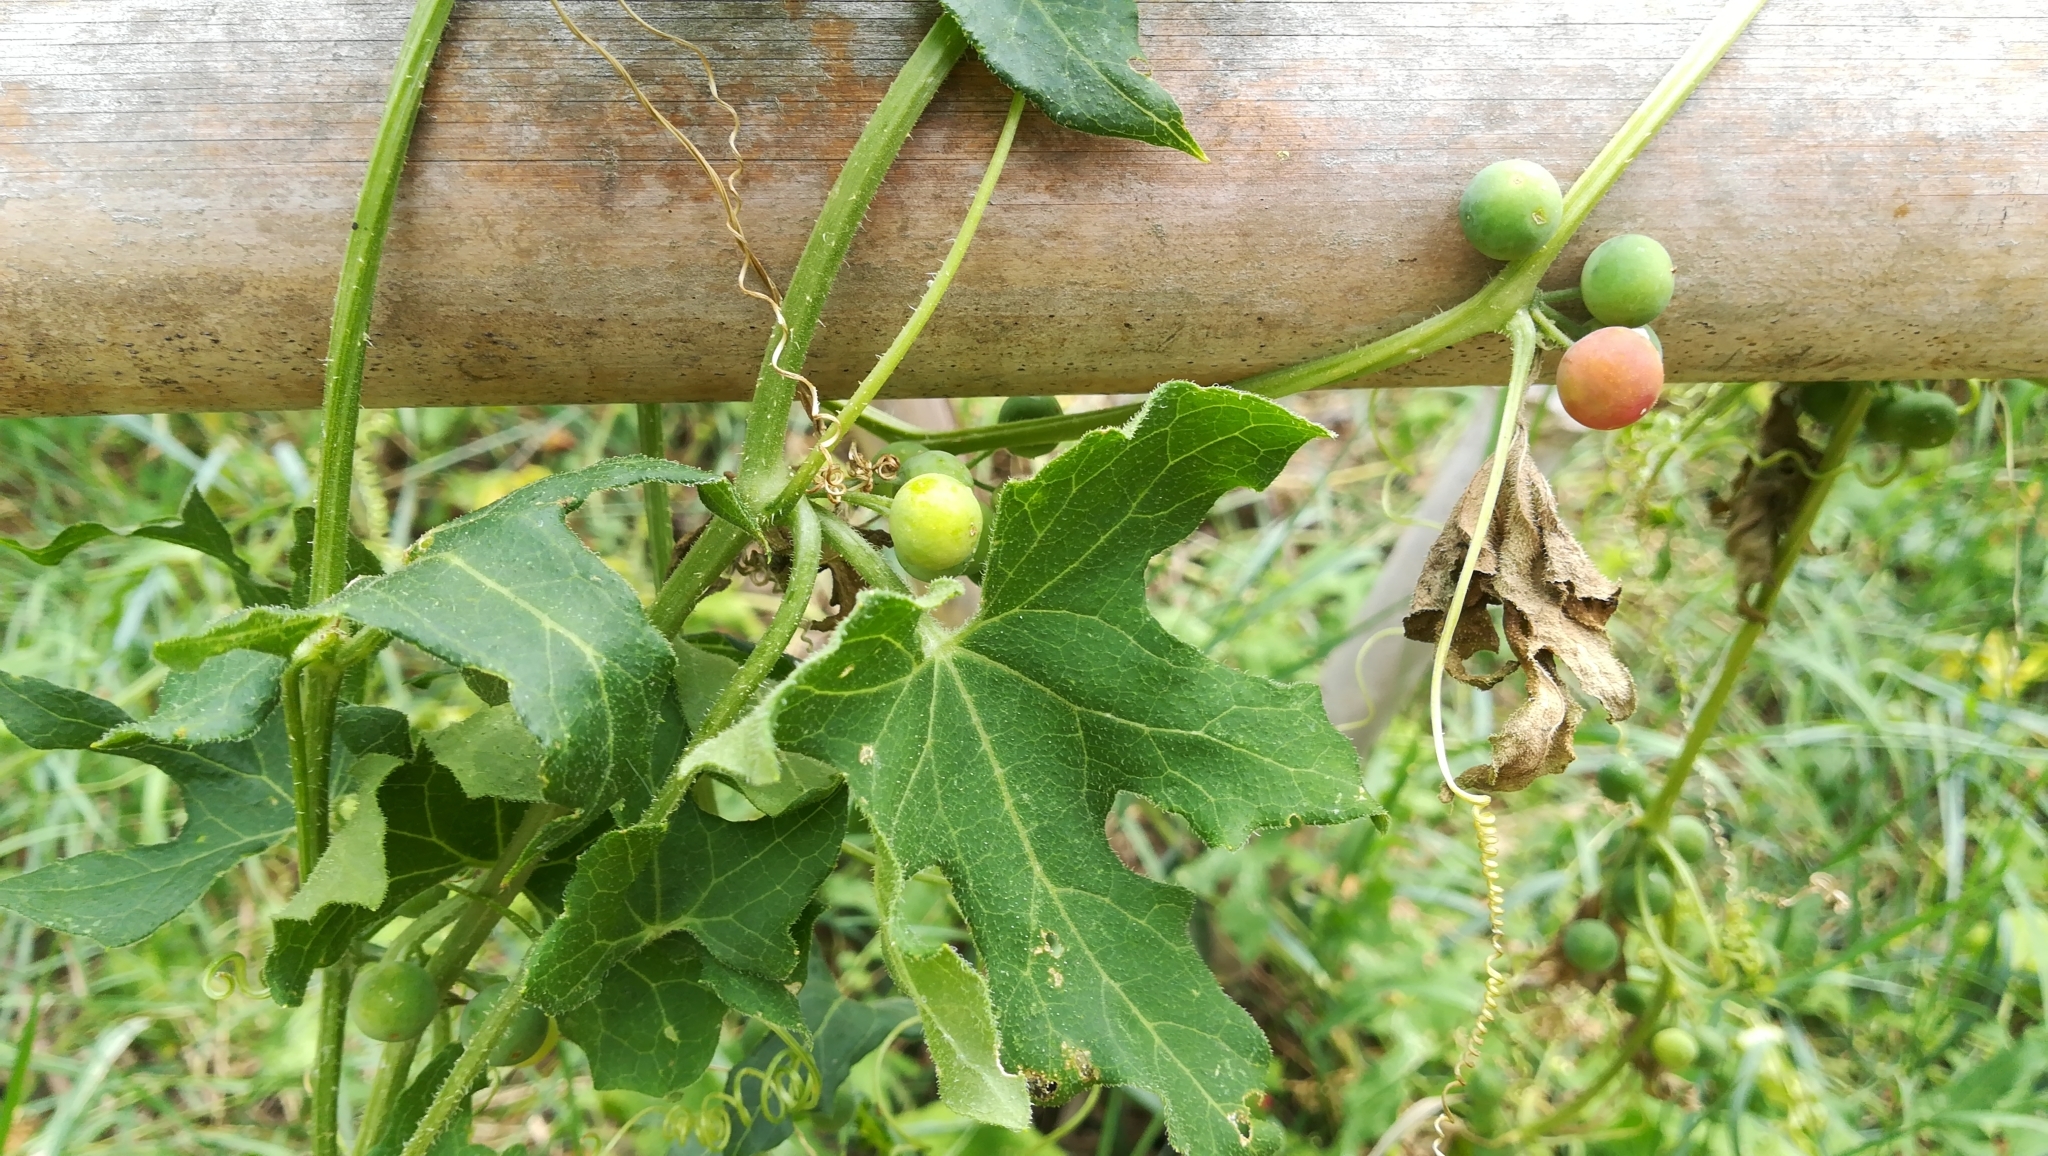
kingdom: Plantae
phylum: Tracheophyta
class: Magnoliopsida
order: Cucurbitales
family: Cucurbitaceae
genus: Bryonia
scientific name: Bryonia cretica
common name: Cretan bryony
